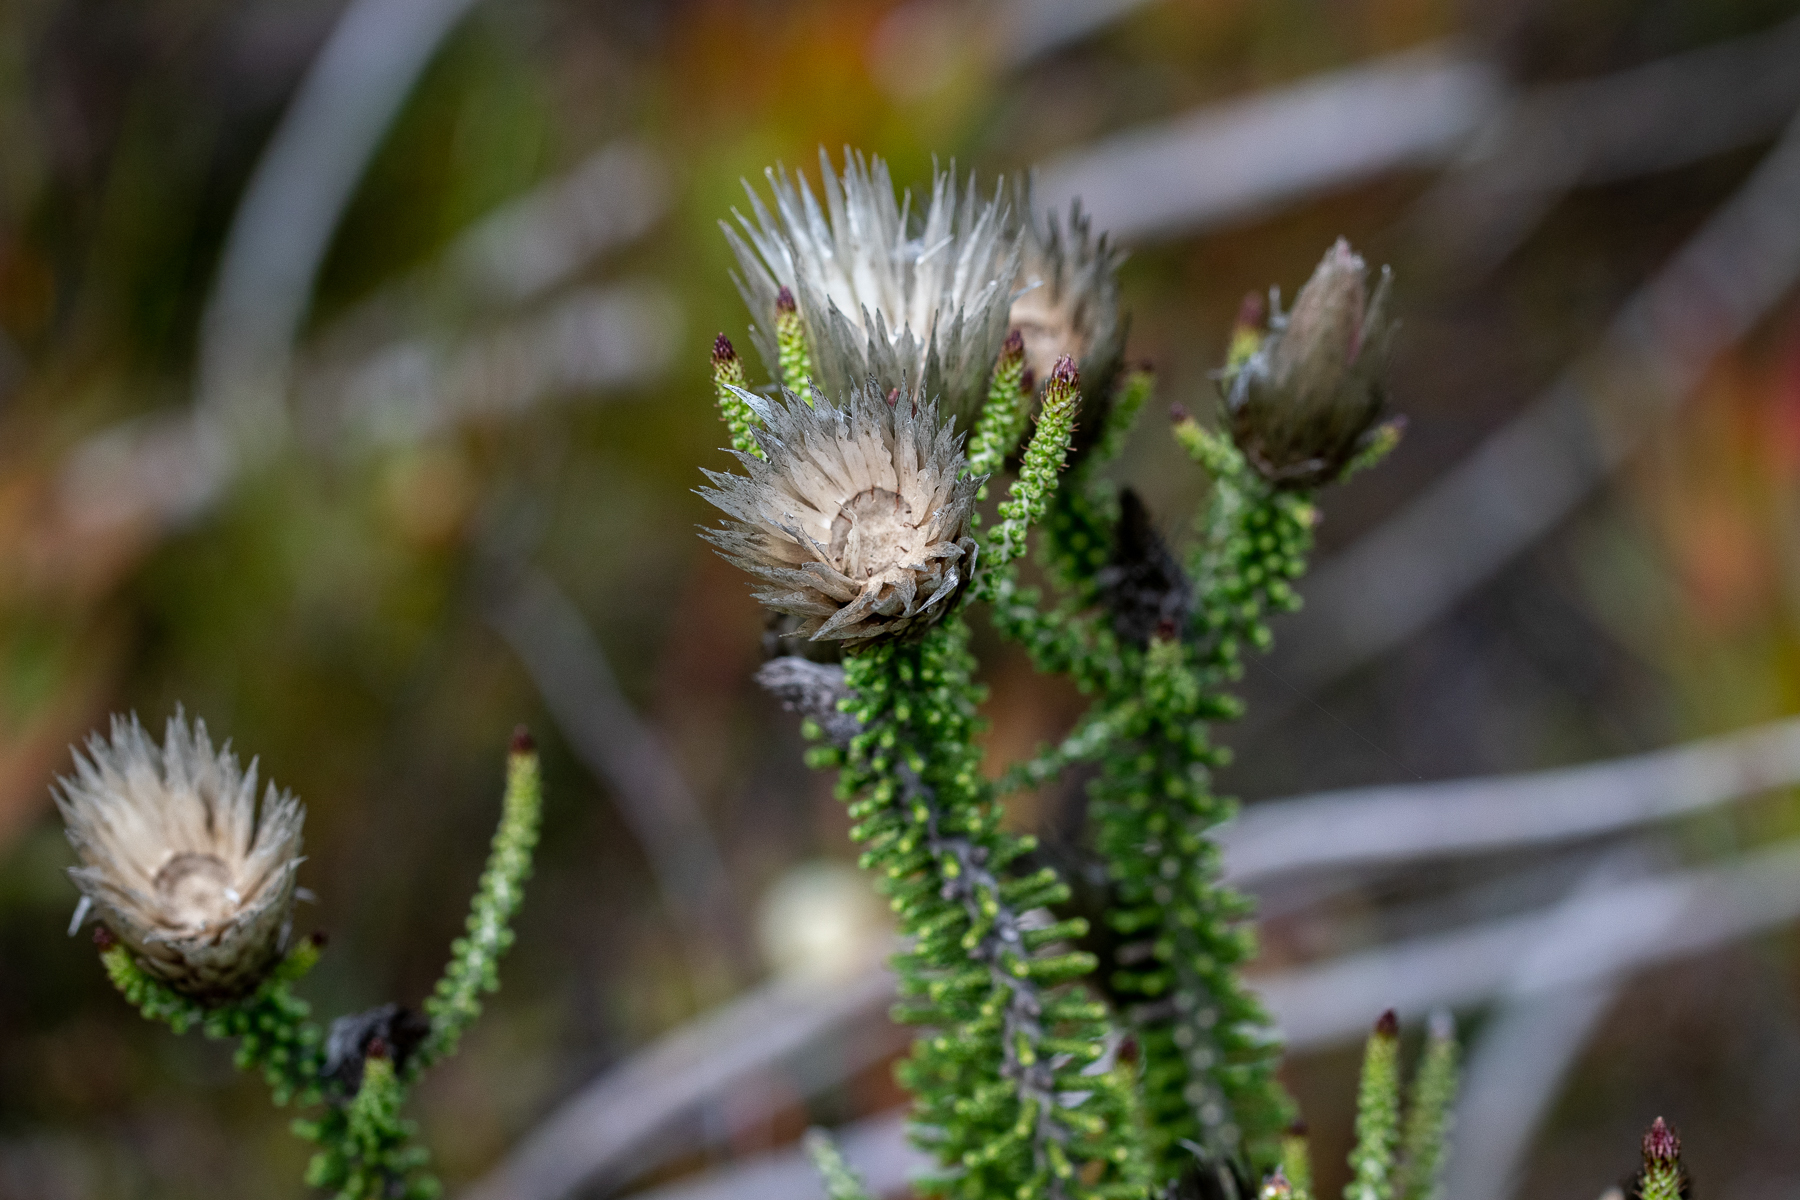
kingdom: Plantae
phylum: Tracheophyta
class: Magnoliopsida
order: Asterales
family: Asteraceae
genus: Phaenocoma
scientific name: Phaenocoma prolifera
